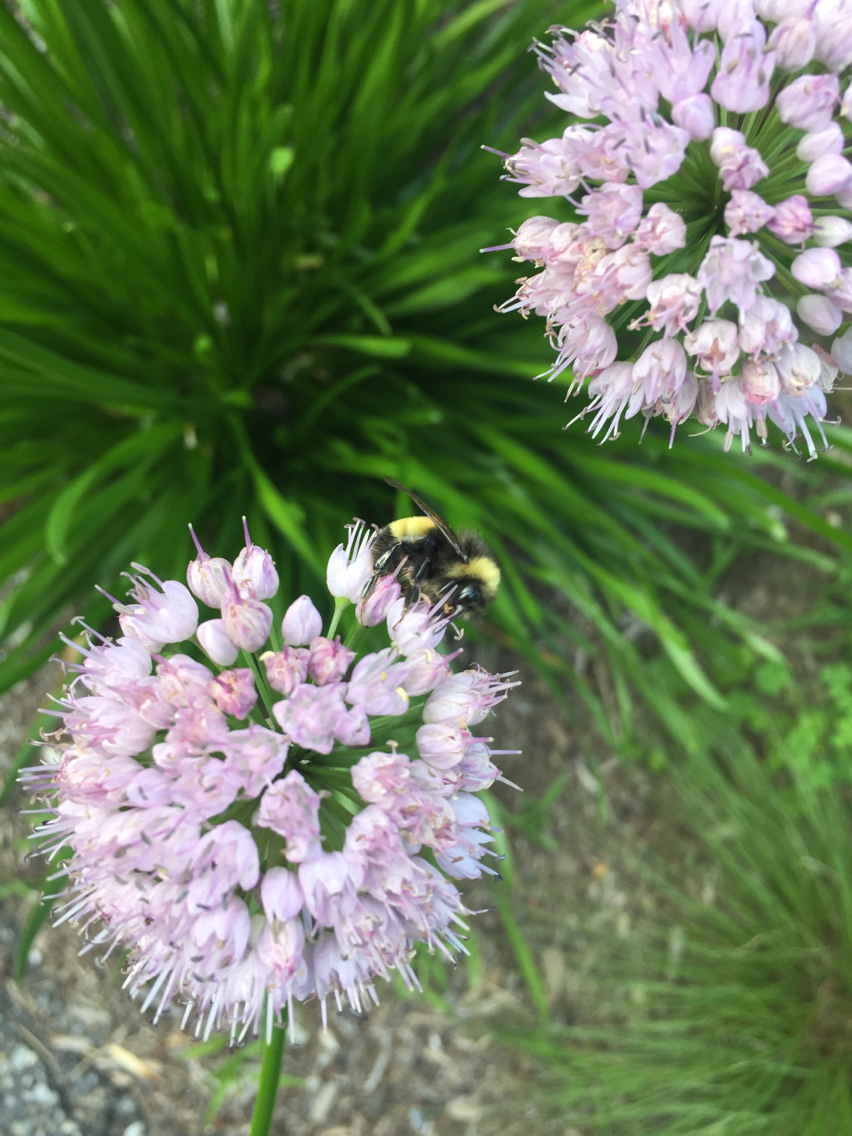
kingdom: Animalia
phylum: Arthropoda
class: Insecta
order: Hymenoptera
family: Apidae
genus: Bombus
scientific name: Bombus terricola
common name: Yellow-banded bumble bee
